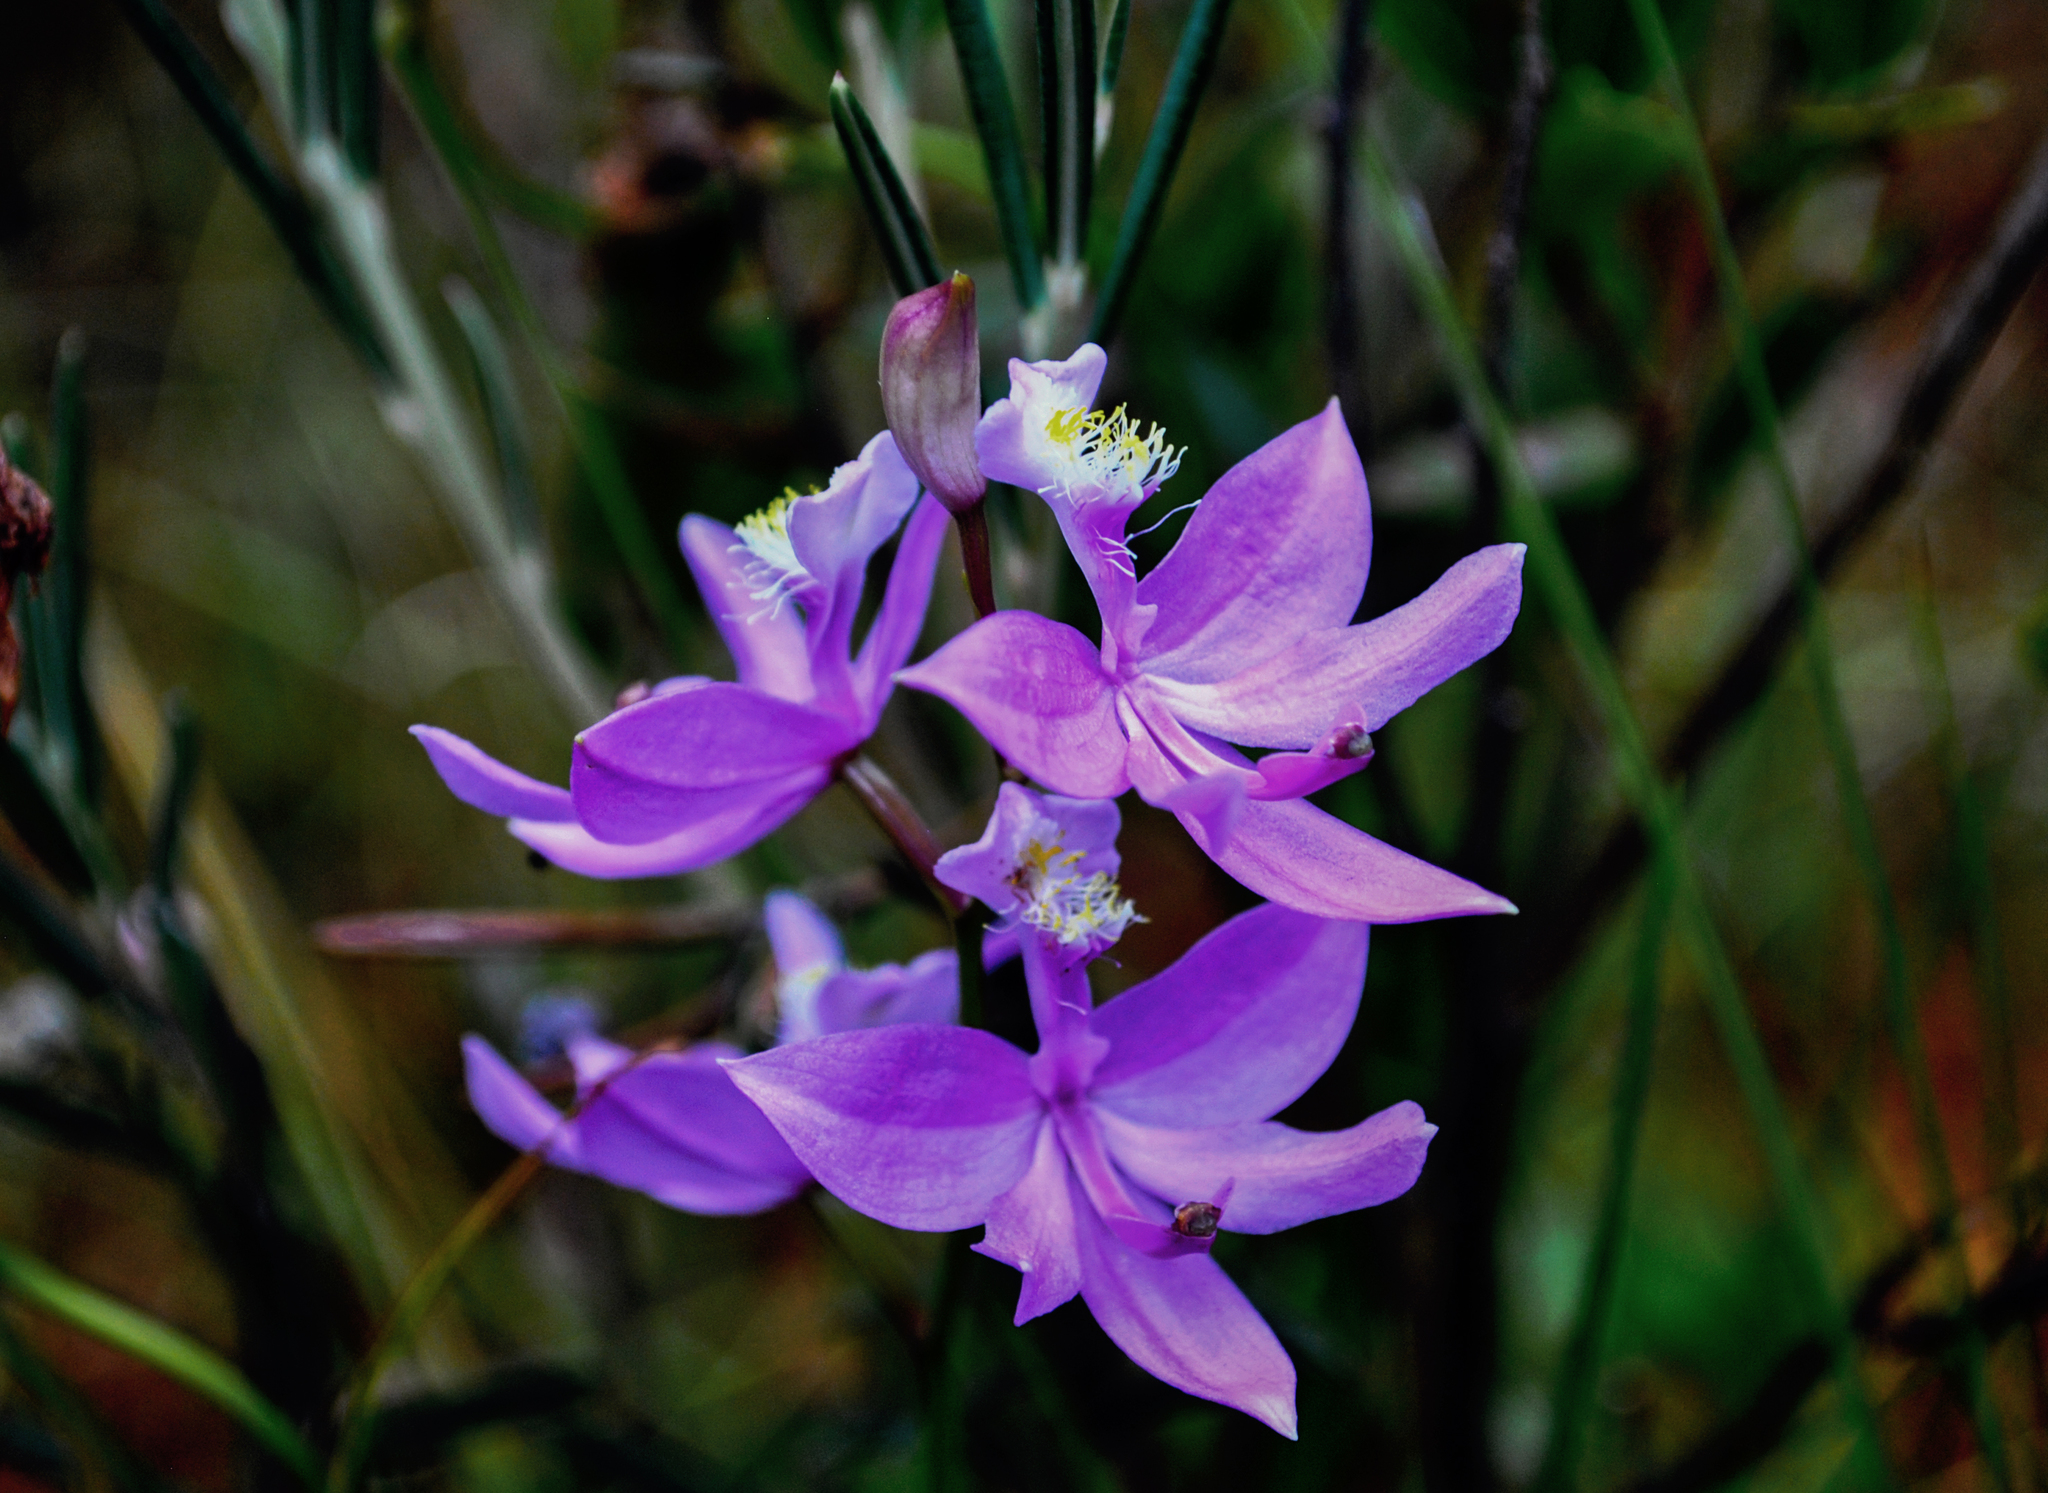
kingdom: Plantae
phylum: Tracheophyta
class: Liliopsida
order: Asparagales
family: Orchidaceae
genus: Calopogon
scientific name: Calopogon tuberosus
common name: Grass-pink
